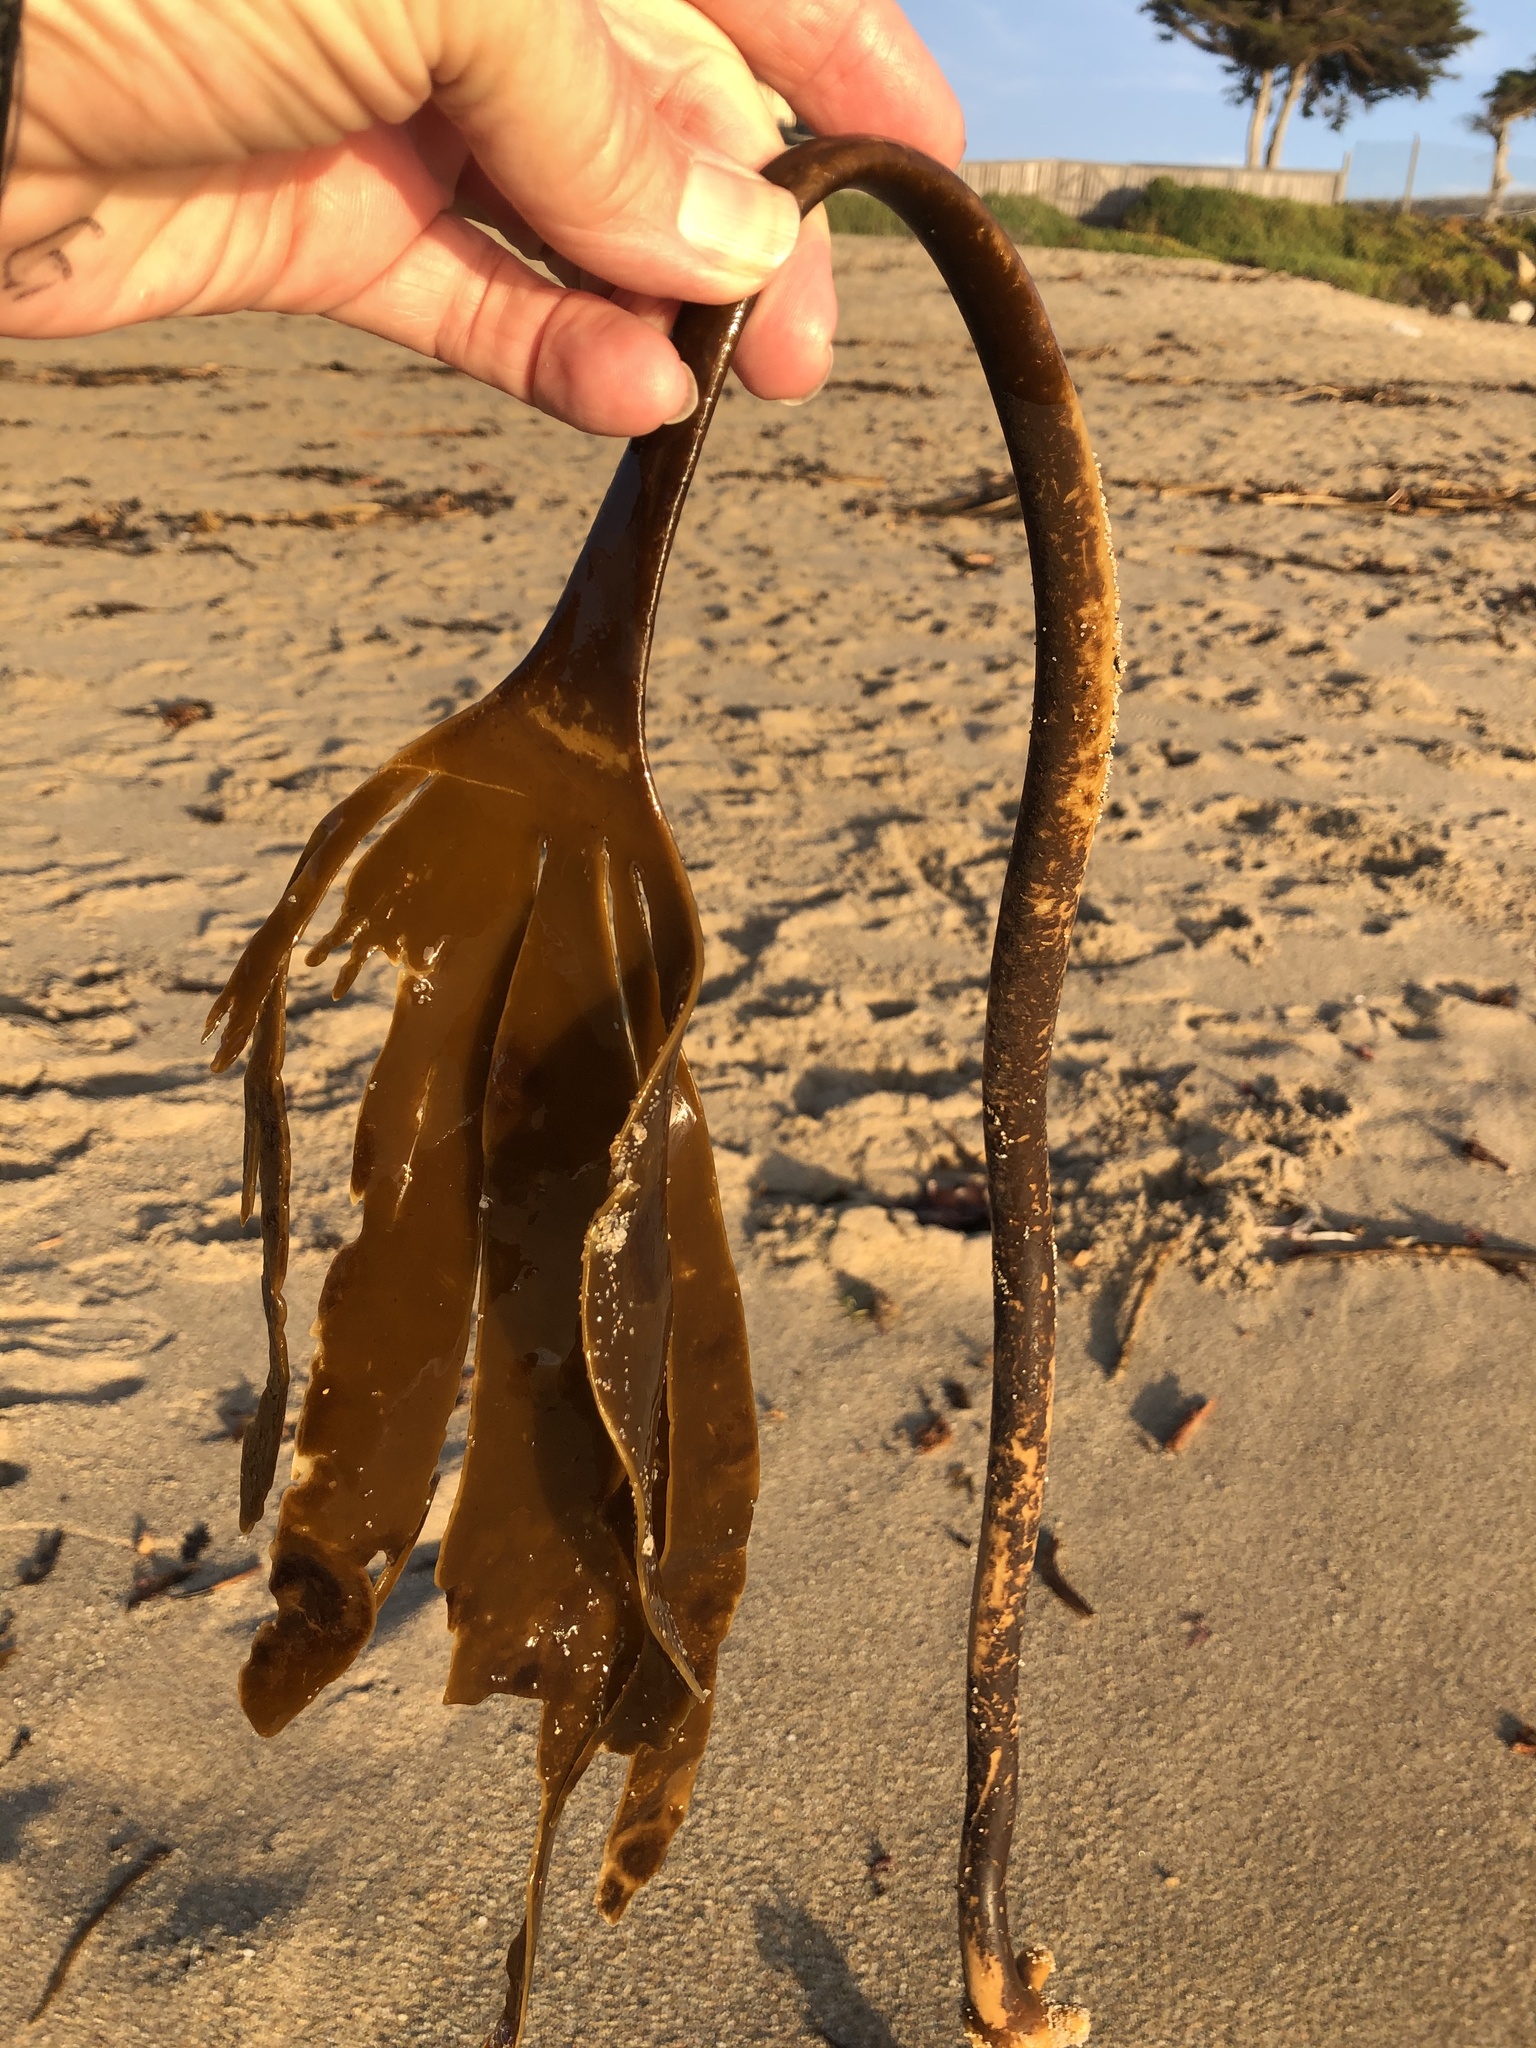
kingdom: Chromista
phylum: Ochrophyta
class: Phaeophyceae
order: Laminariales
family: Laminariaceae
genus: Laminaria
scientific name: Laminaria setchellii
